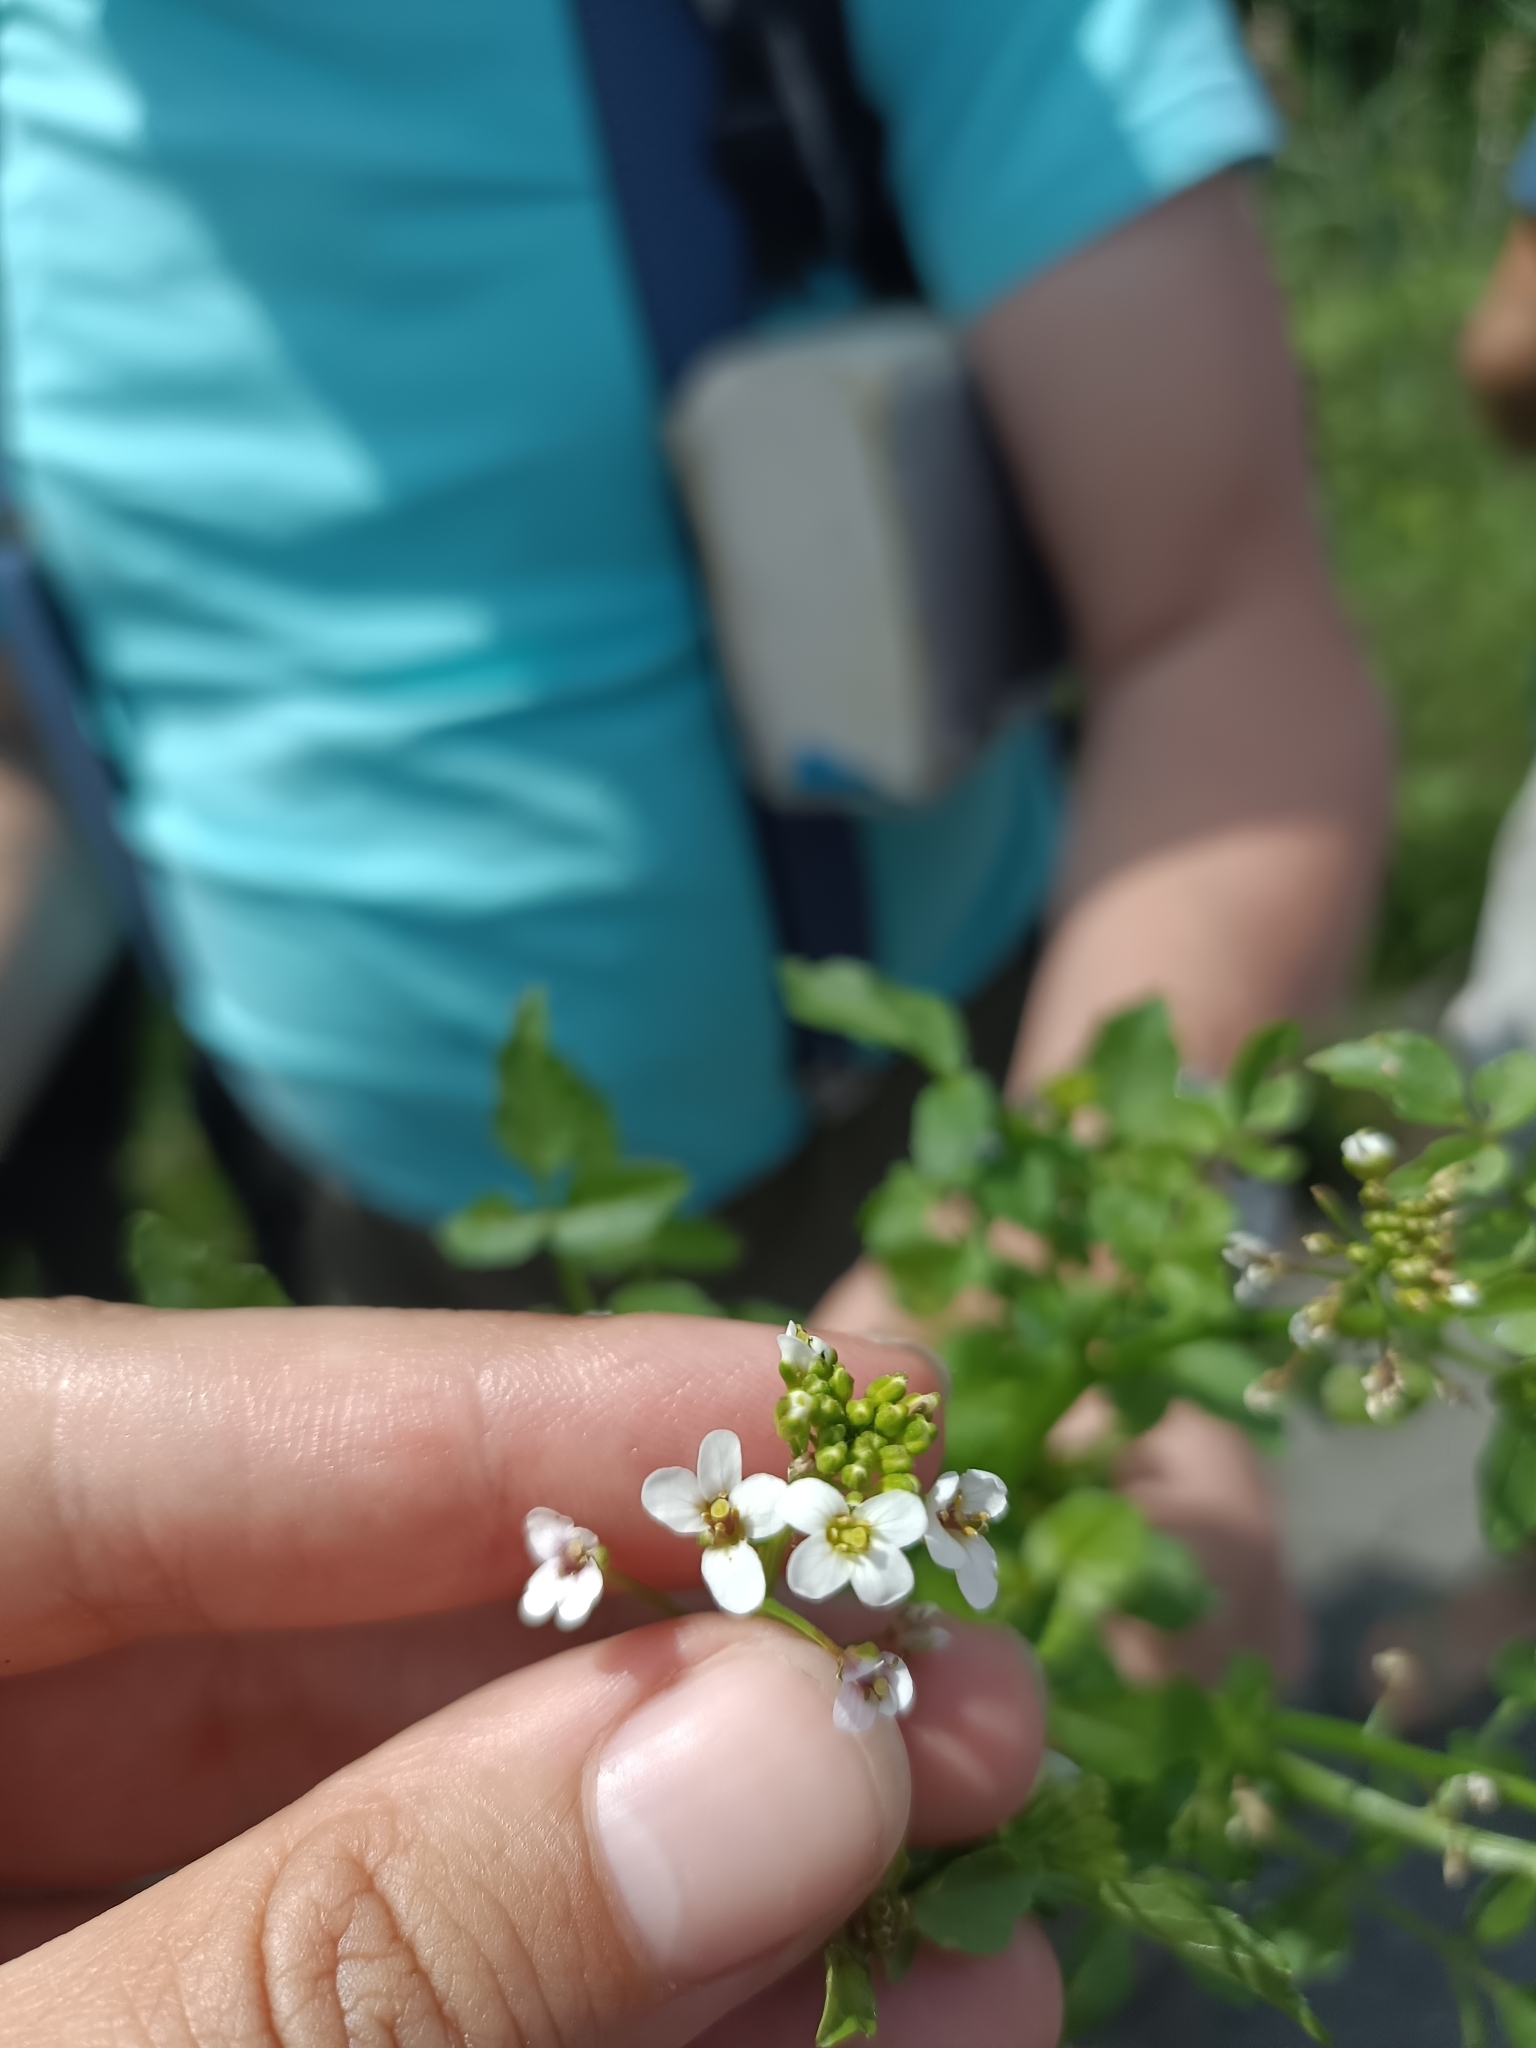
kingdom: Plantae
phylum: Tracheophyta
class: Magnoliopsida
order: Brassicales
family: Brassicaceae
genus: Nasturtium
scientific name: Nasturtium officinale
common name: Watercress
